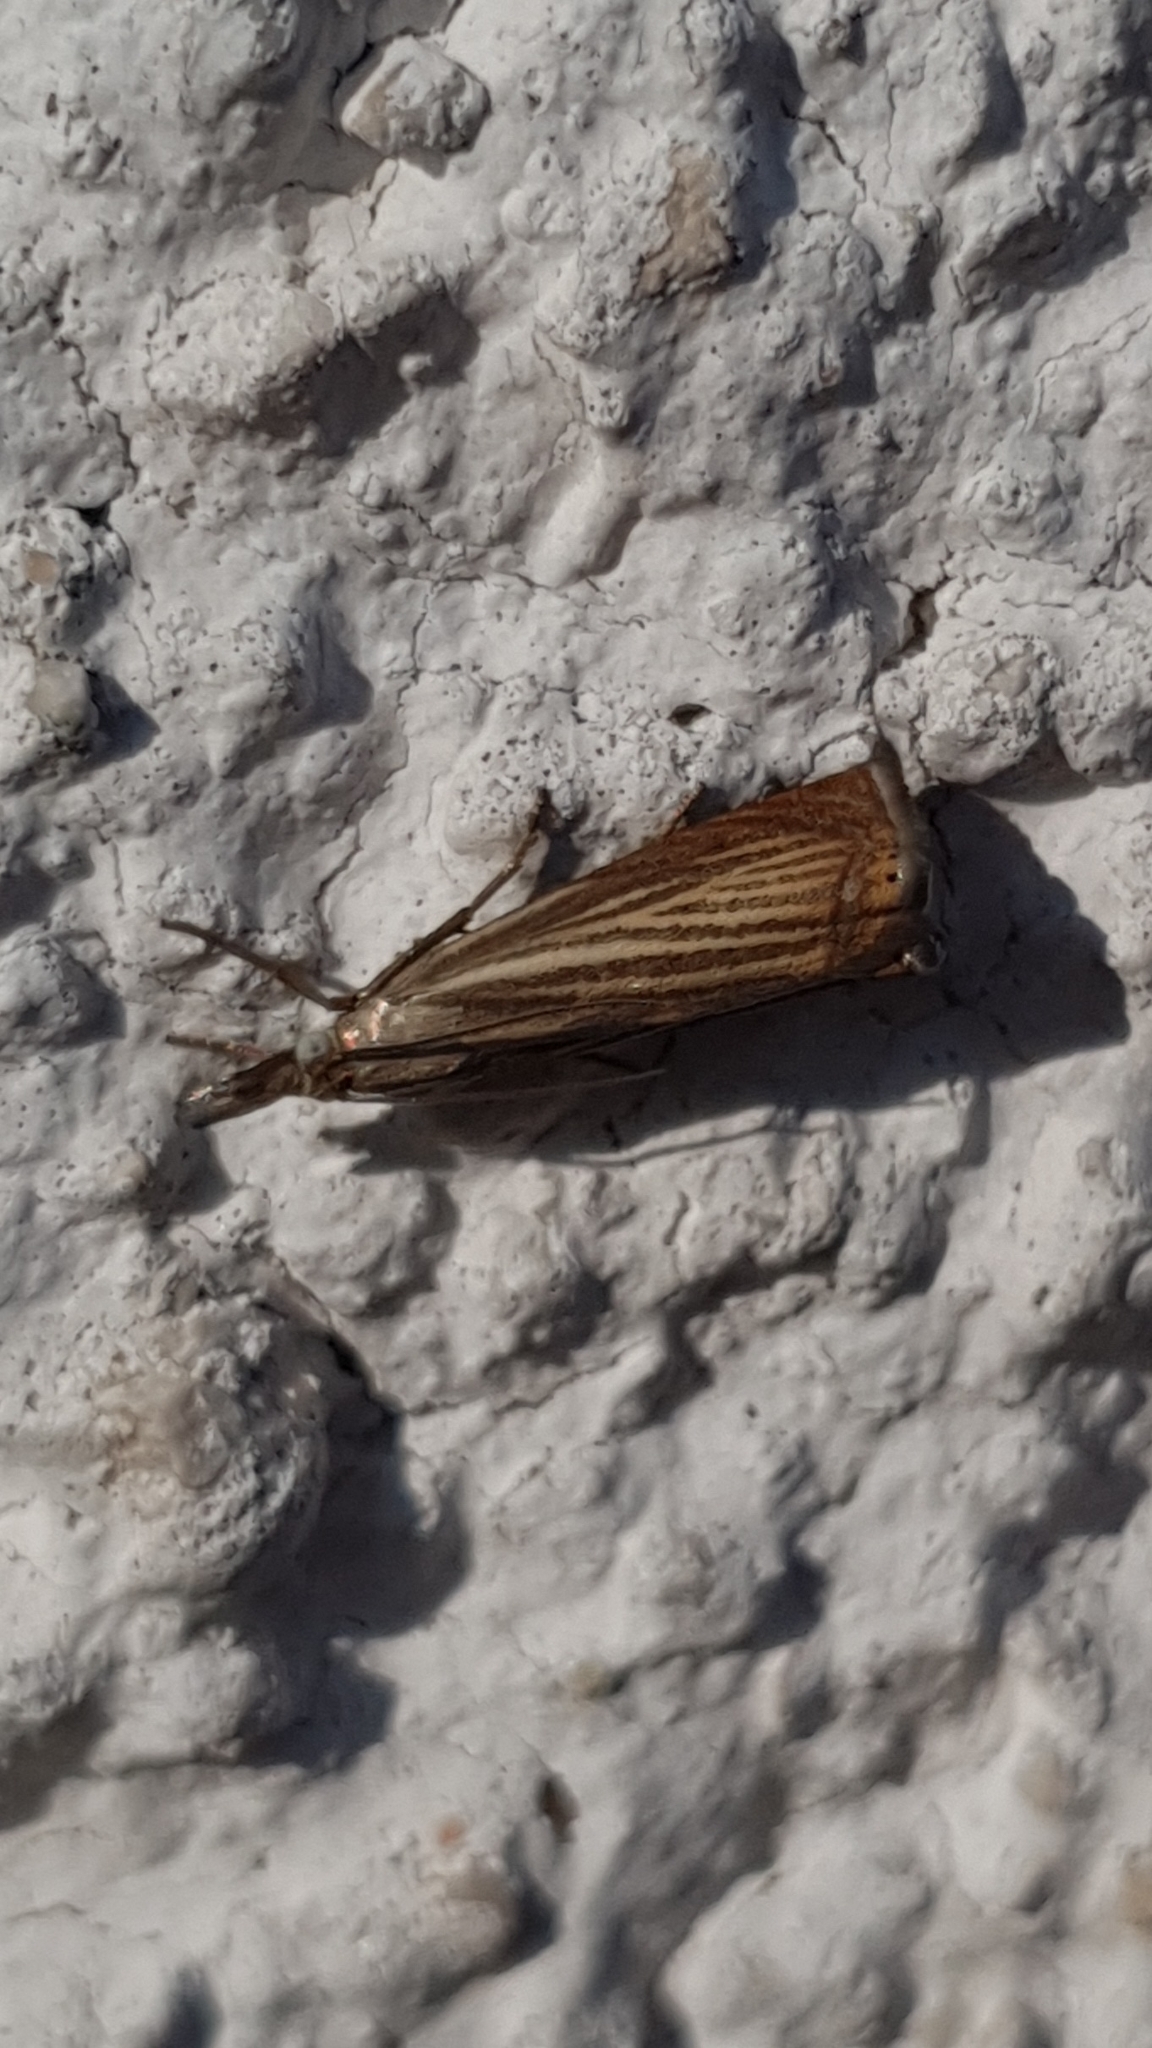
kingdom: Animalia
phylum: Arthropoda
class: Insecta
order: Lepidoptera
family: Crambidae
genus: Chrysoteuchia
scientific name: Chrysoteuchia culmella
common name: Garden grass-veneer
